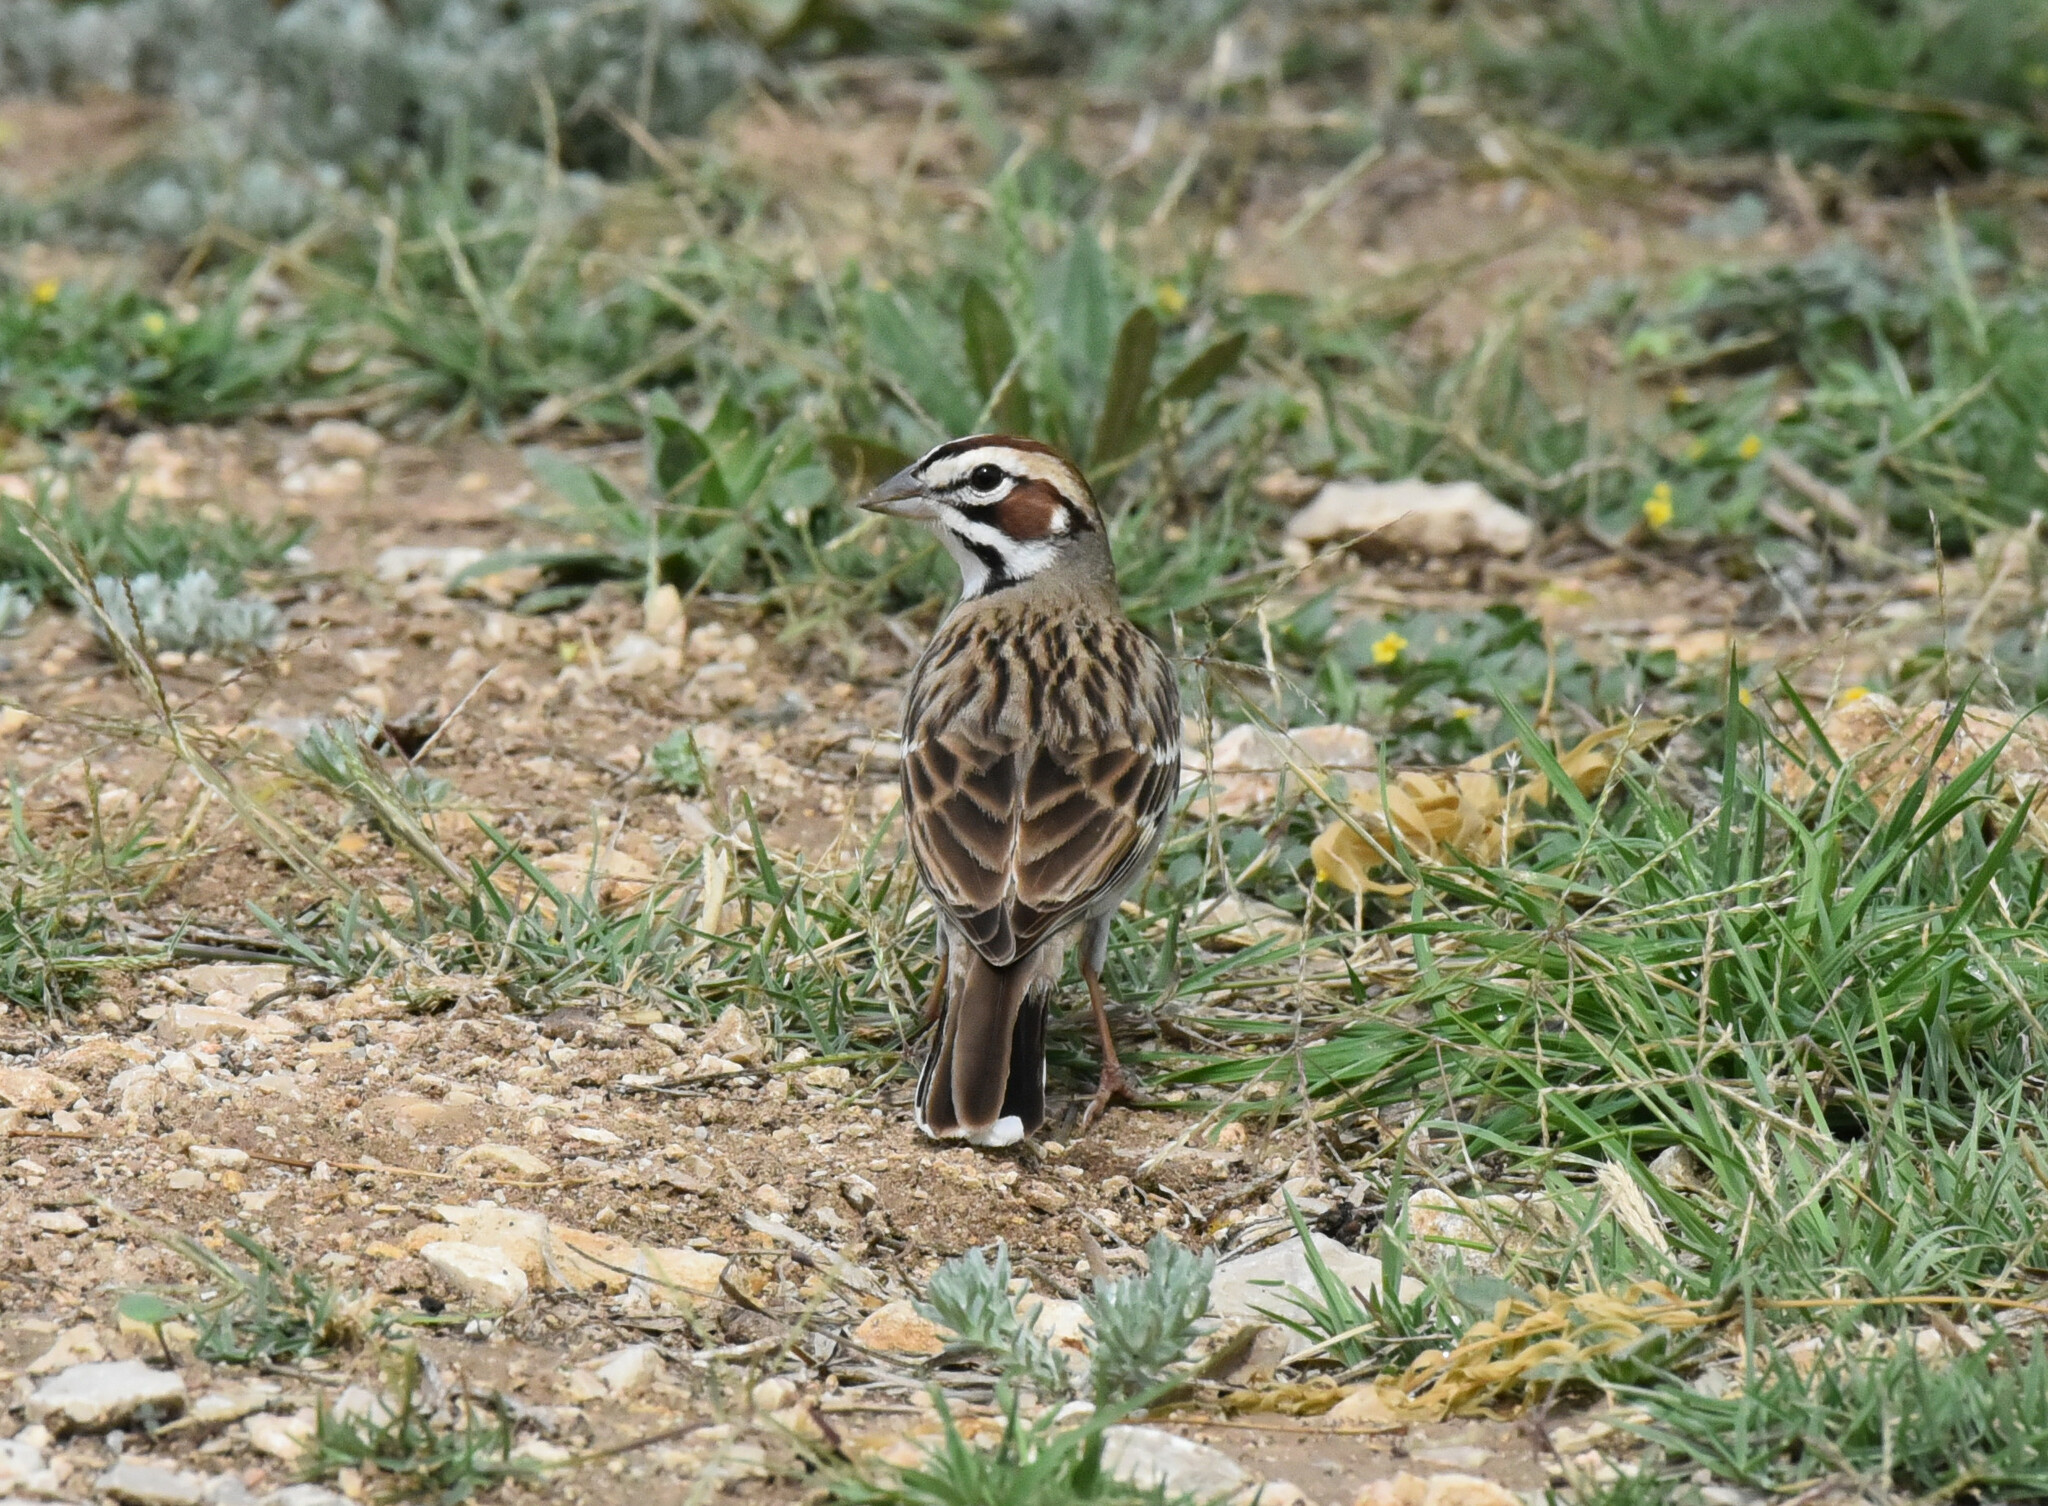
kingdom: Animalia
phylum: Chordata
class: Aves
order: Passeriformes
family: Passerellidae
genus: Chondestes
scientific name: Chondestes grammacus
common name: Lark sparrow
